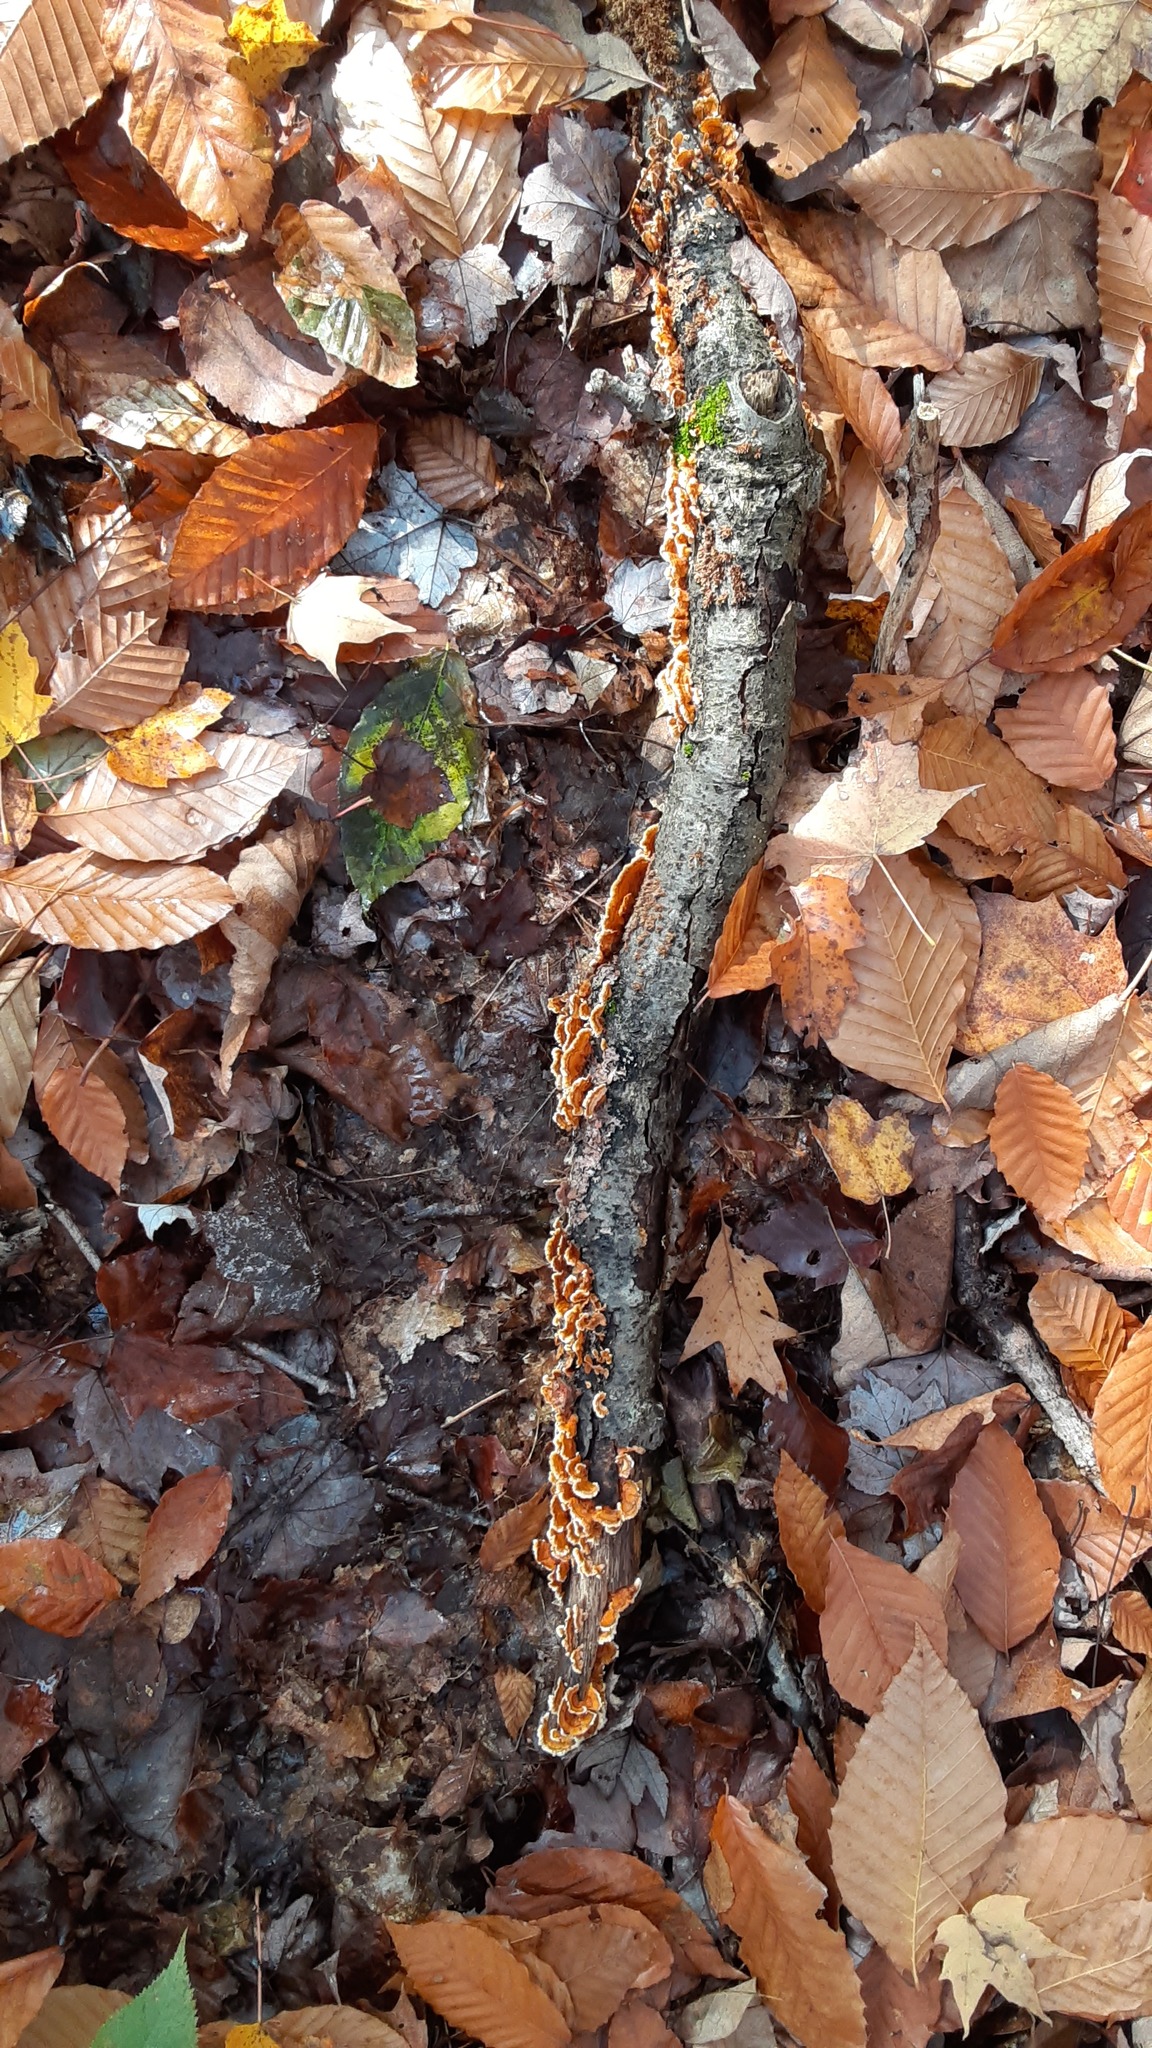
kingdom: Fungi
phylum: Basidiomycota
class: Agaricomycetes
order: Russulales
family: Stereaceae
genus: Stereum
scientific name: Stereum complicatum
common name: Crowded parchment
